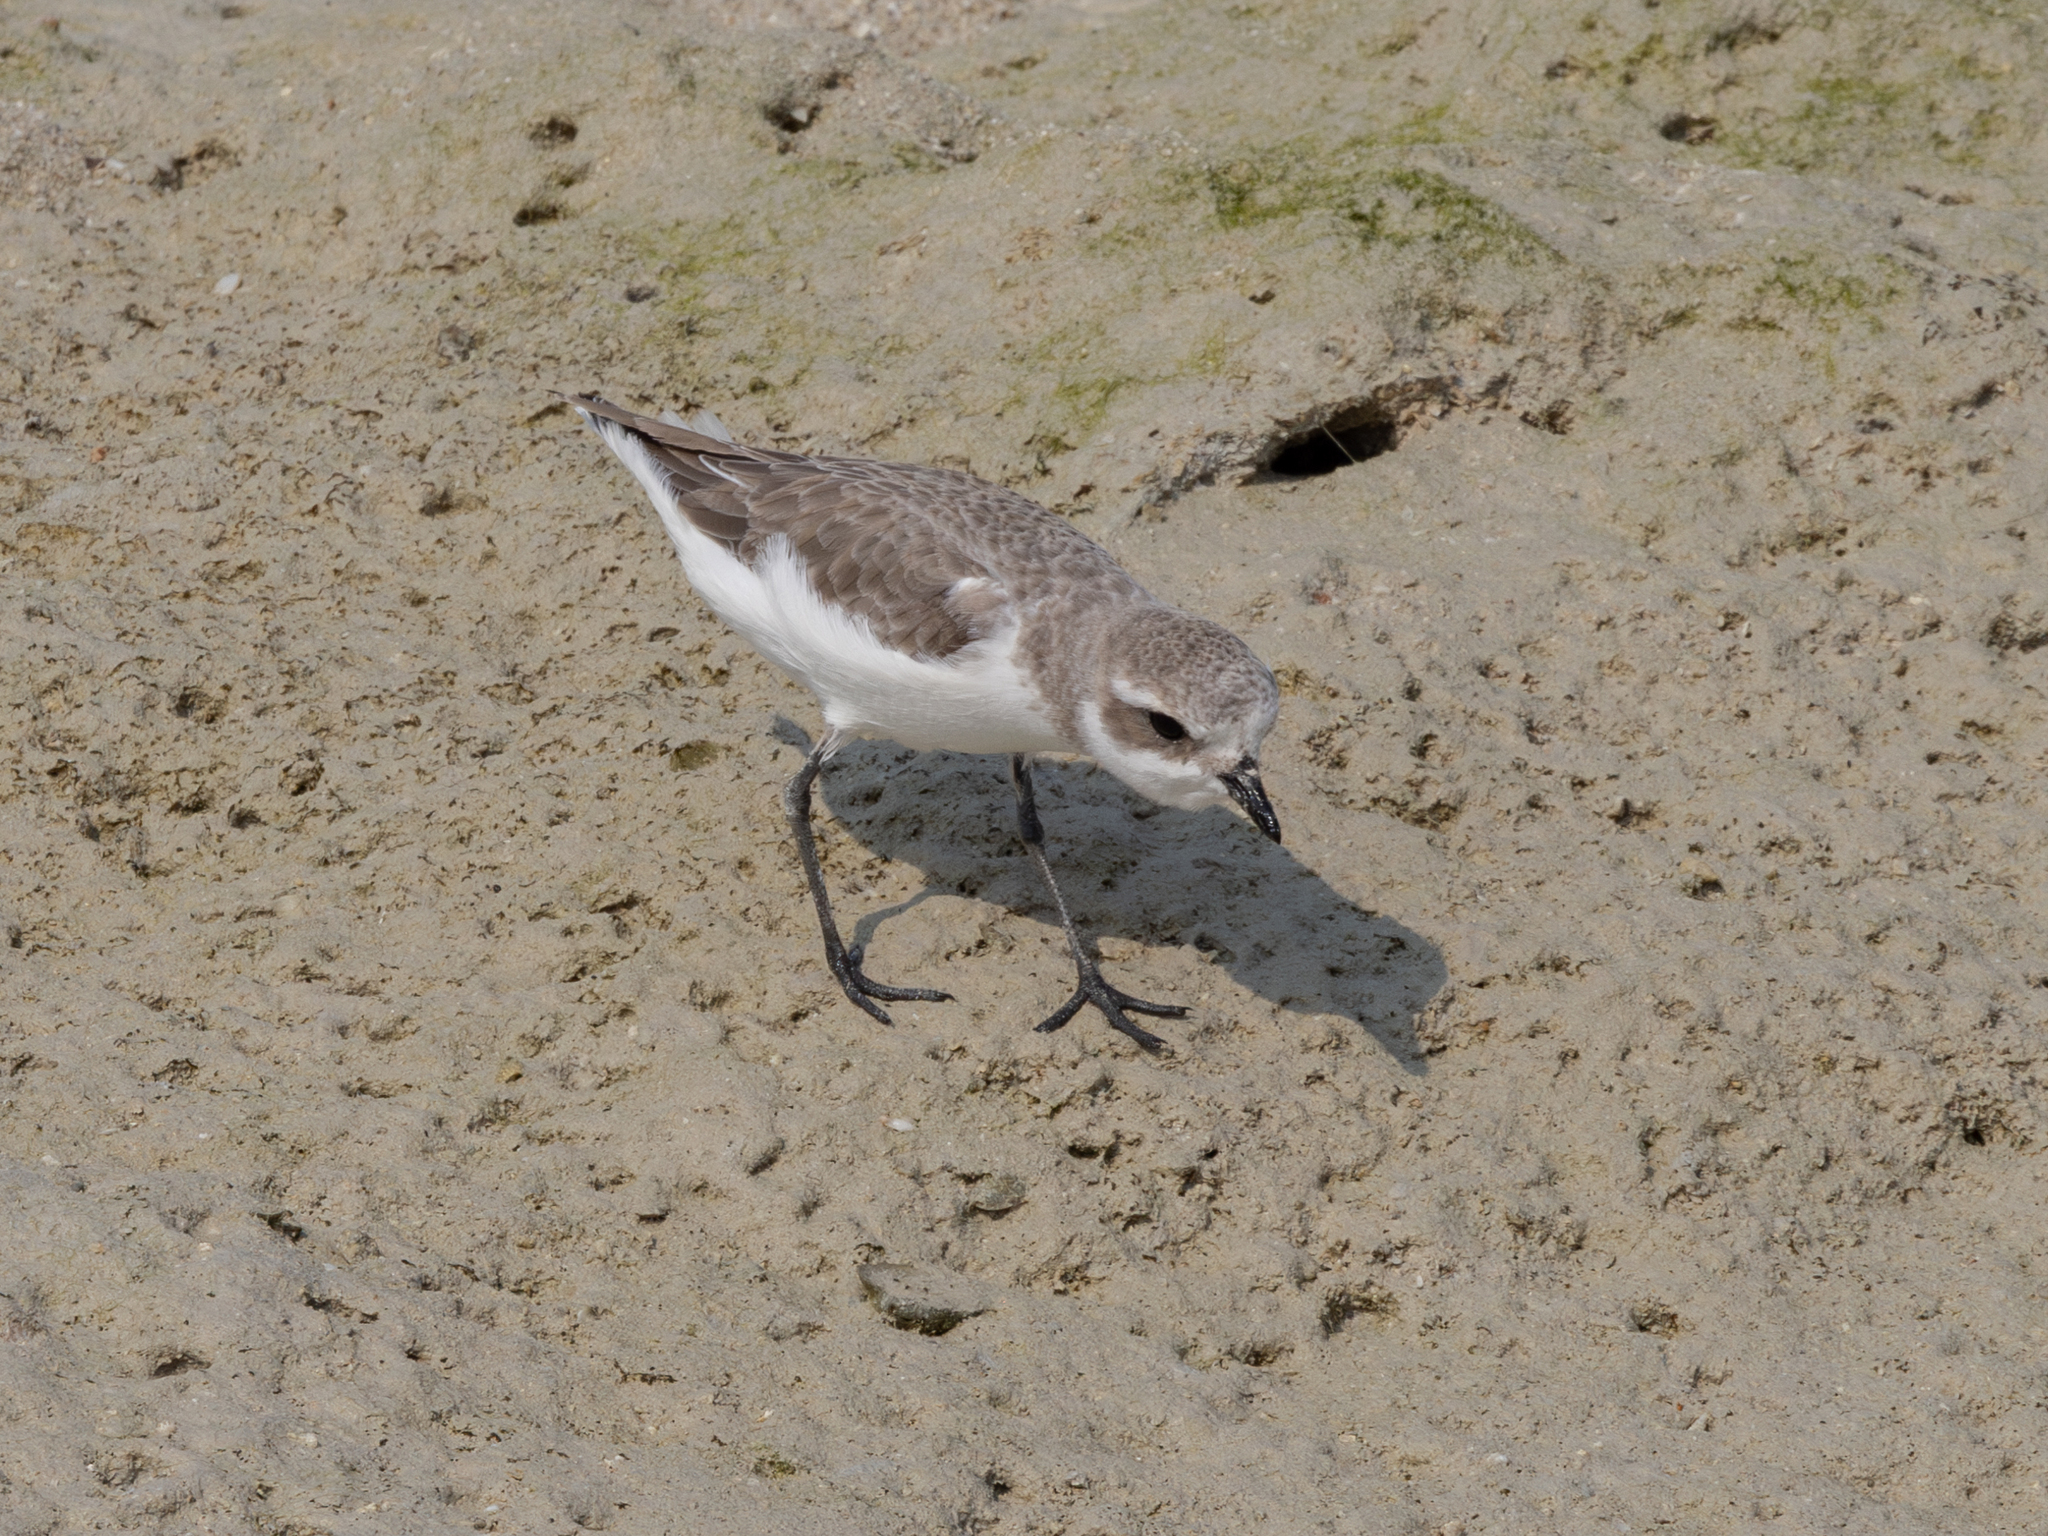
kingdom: Animalia
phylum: Chordata
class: Aves
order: Charadriiformes
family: Charadriidae
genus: Anarhynchus
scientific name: Anarhynchus
